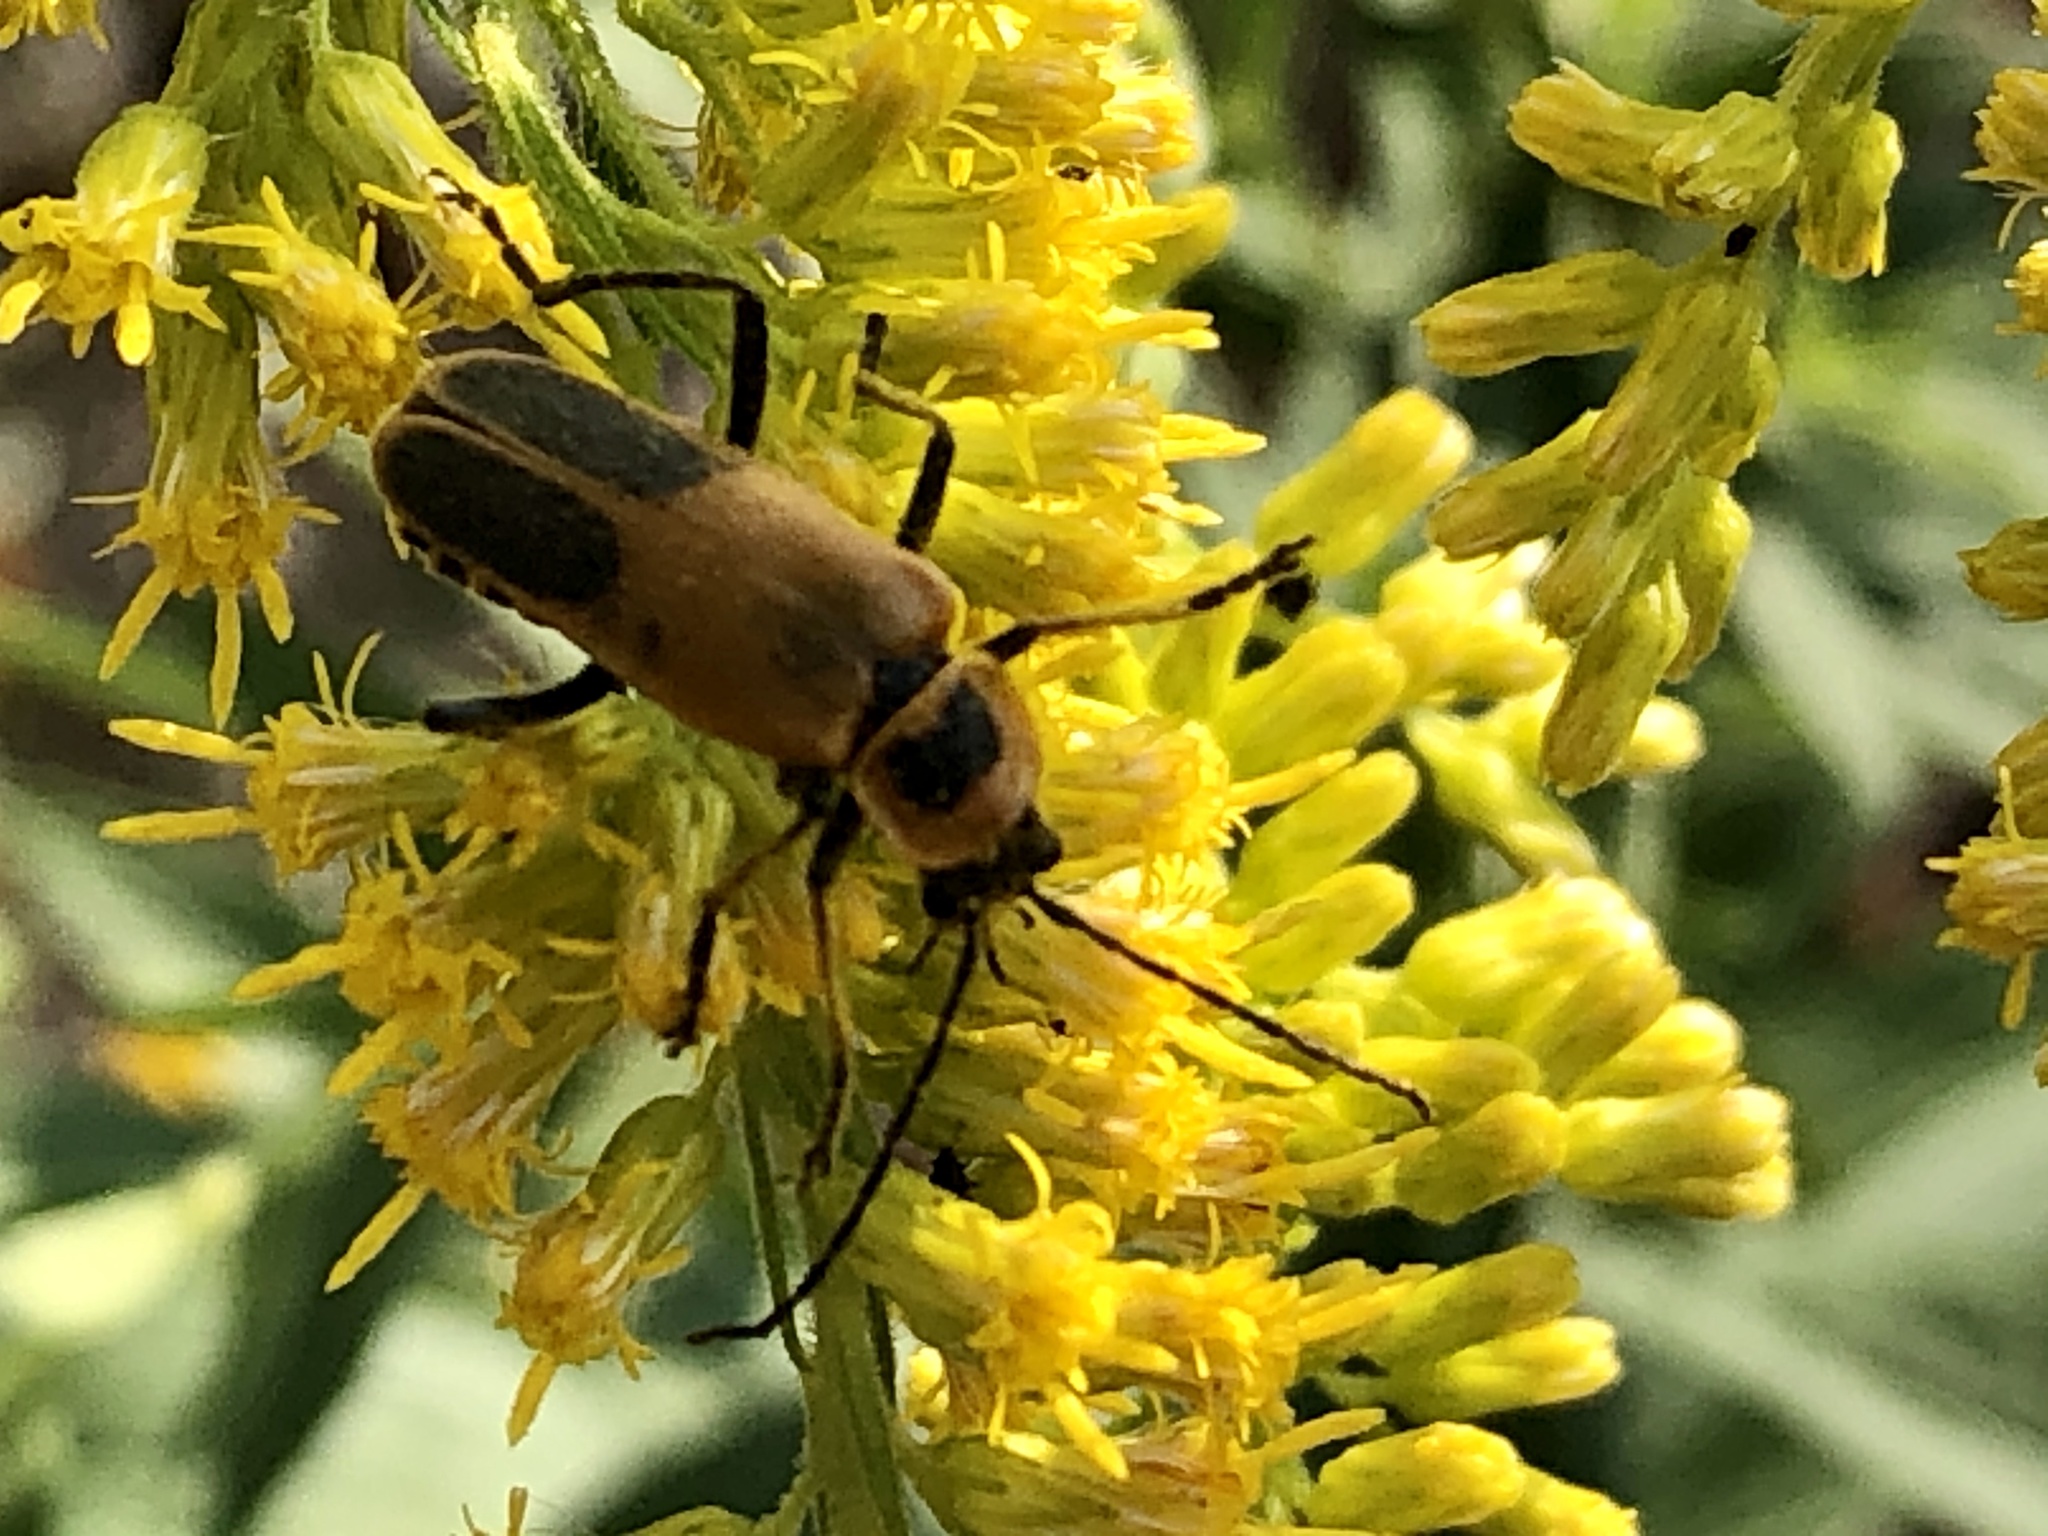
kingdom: Animalia
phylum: Arthropoda
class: Insecta
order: Coleoptera
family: Cantharidae
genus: Chauliognathus
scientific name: Chauliognathus pensylvanicus
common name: Goldenrod soldier beetle
